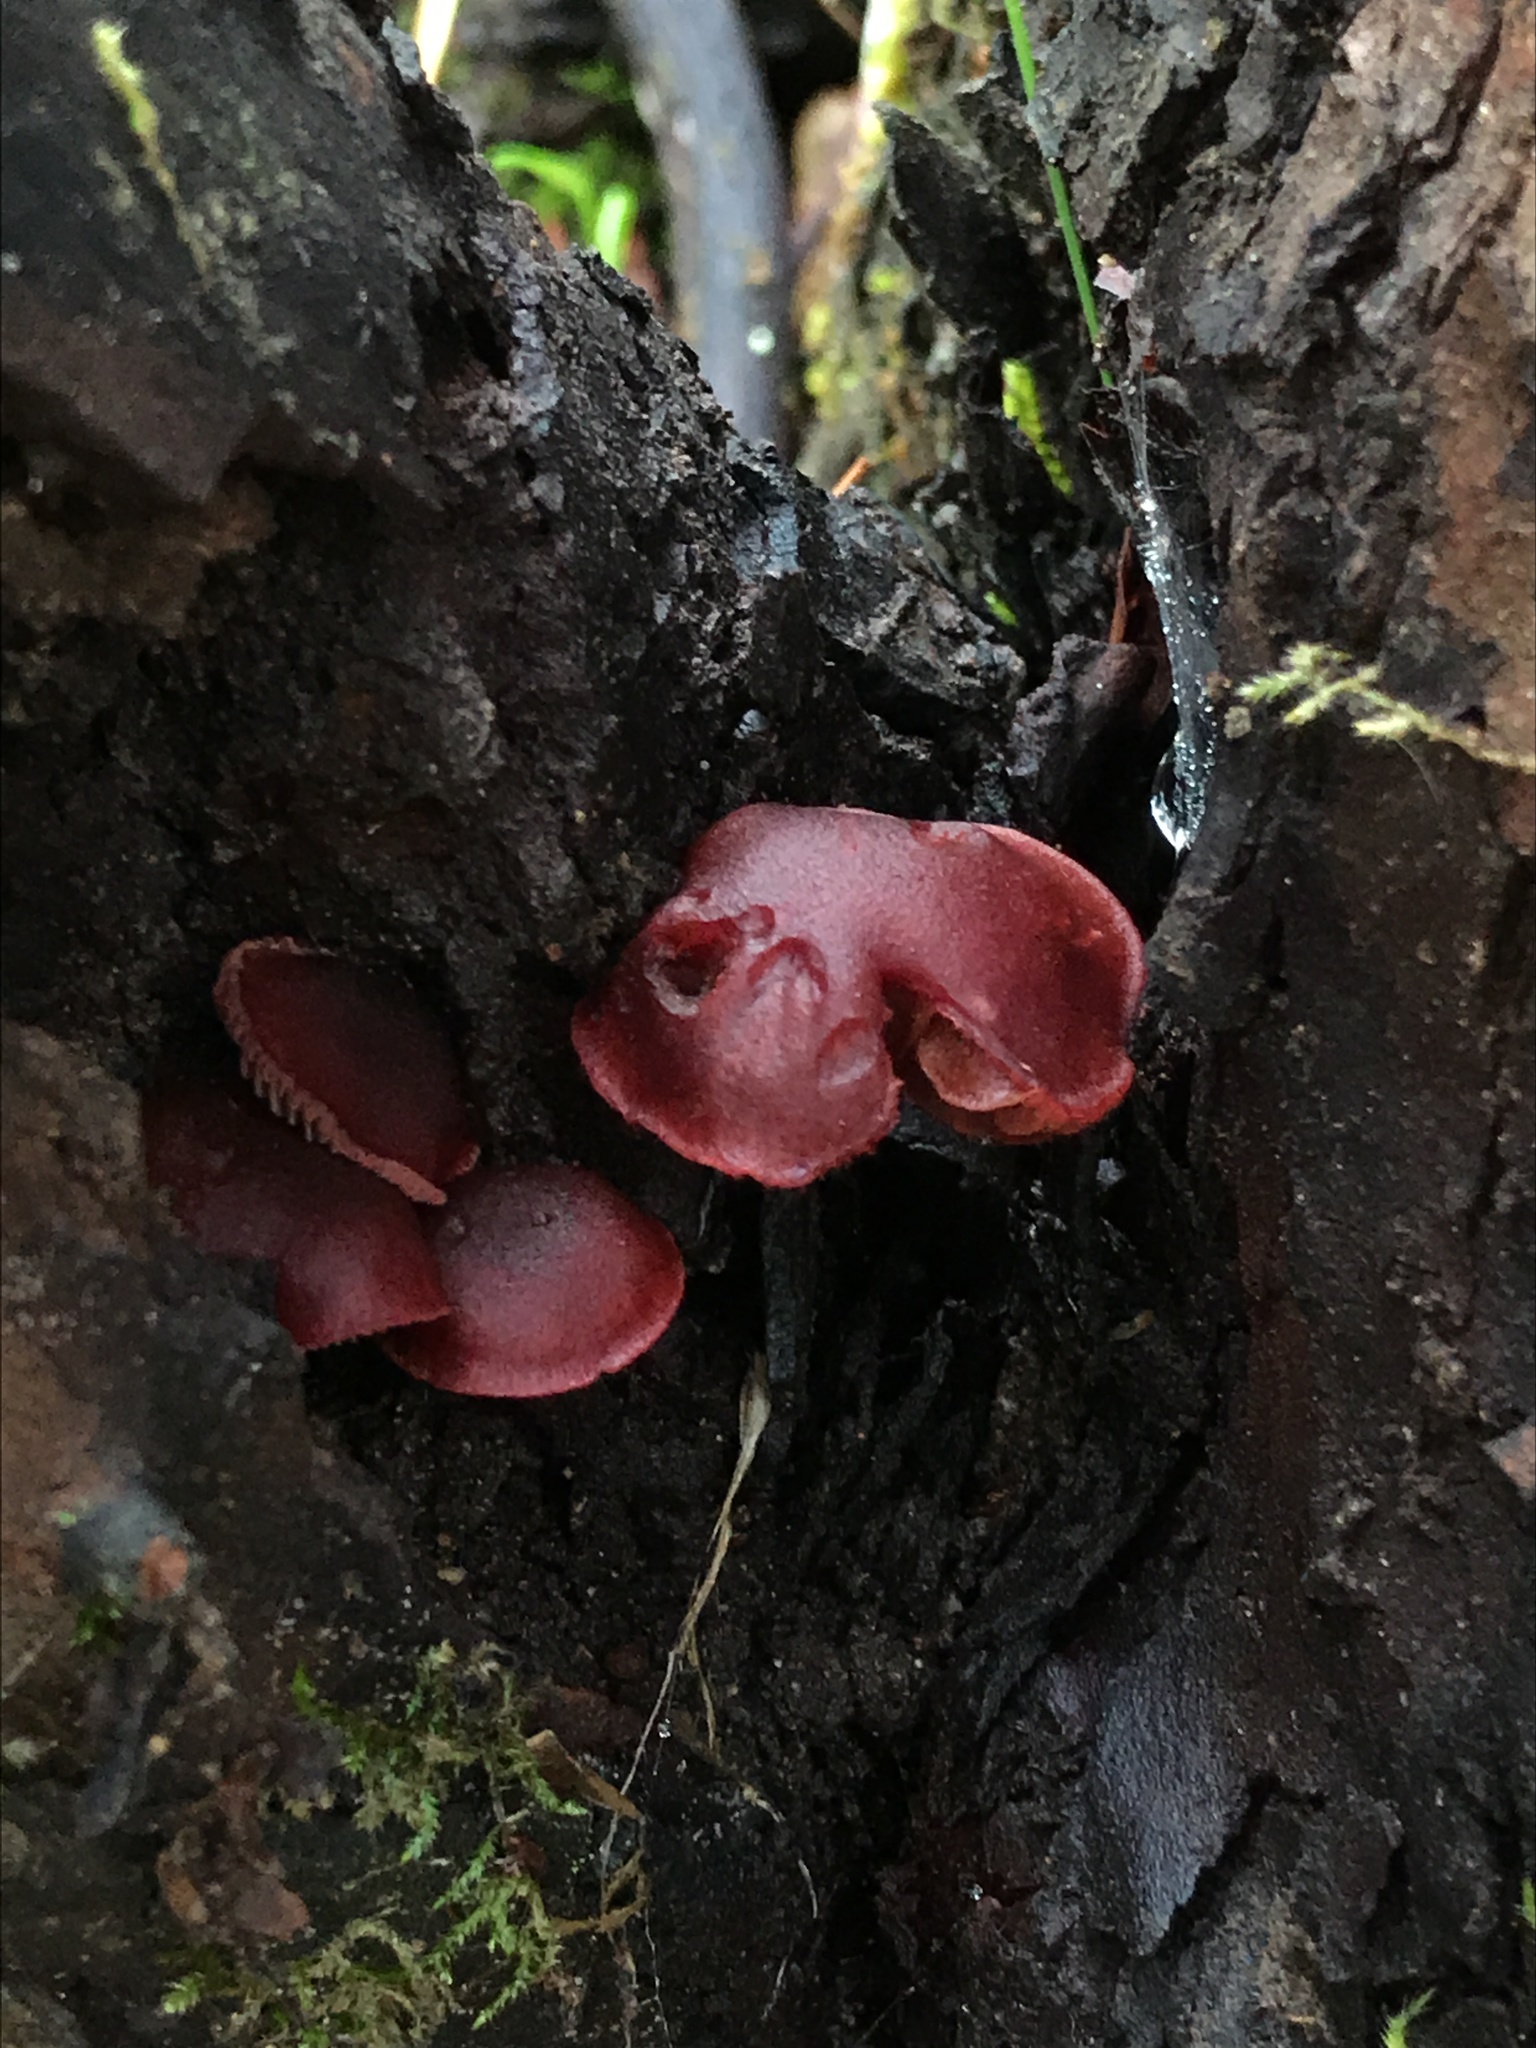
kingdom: Fungi
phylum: Basidiomycota
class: Agaricomycetes
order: Agaricales
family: Tubariaceae
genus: Tubaria
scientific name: Tubaria punicea
